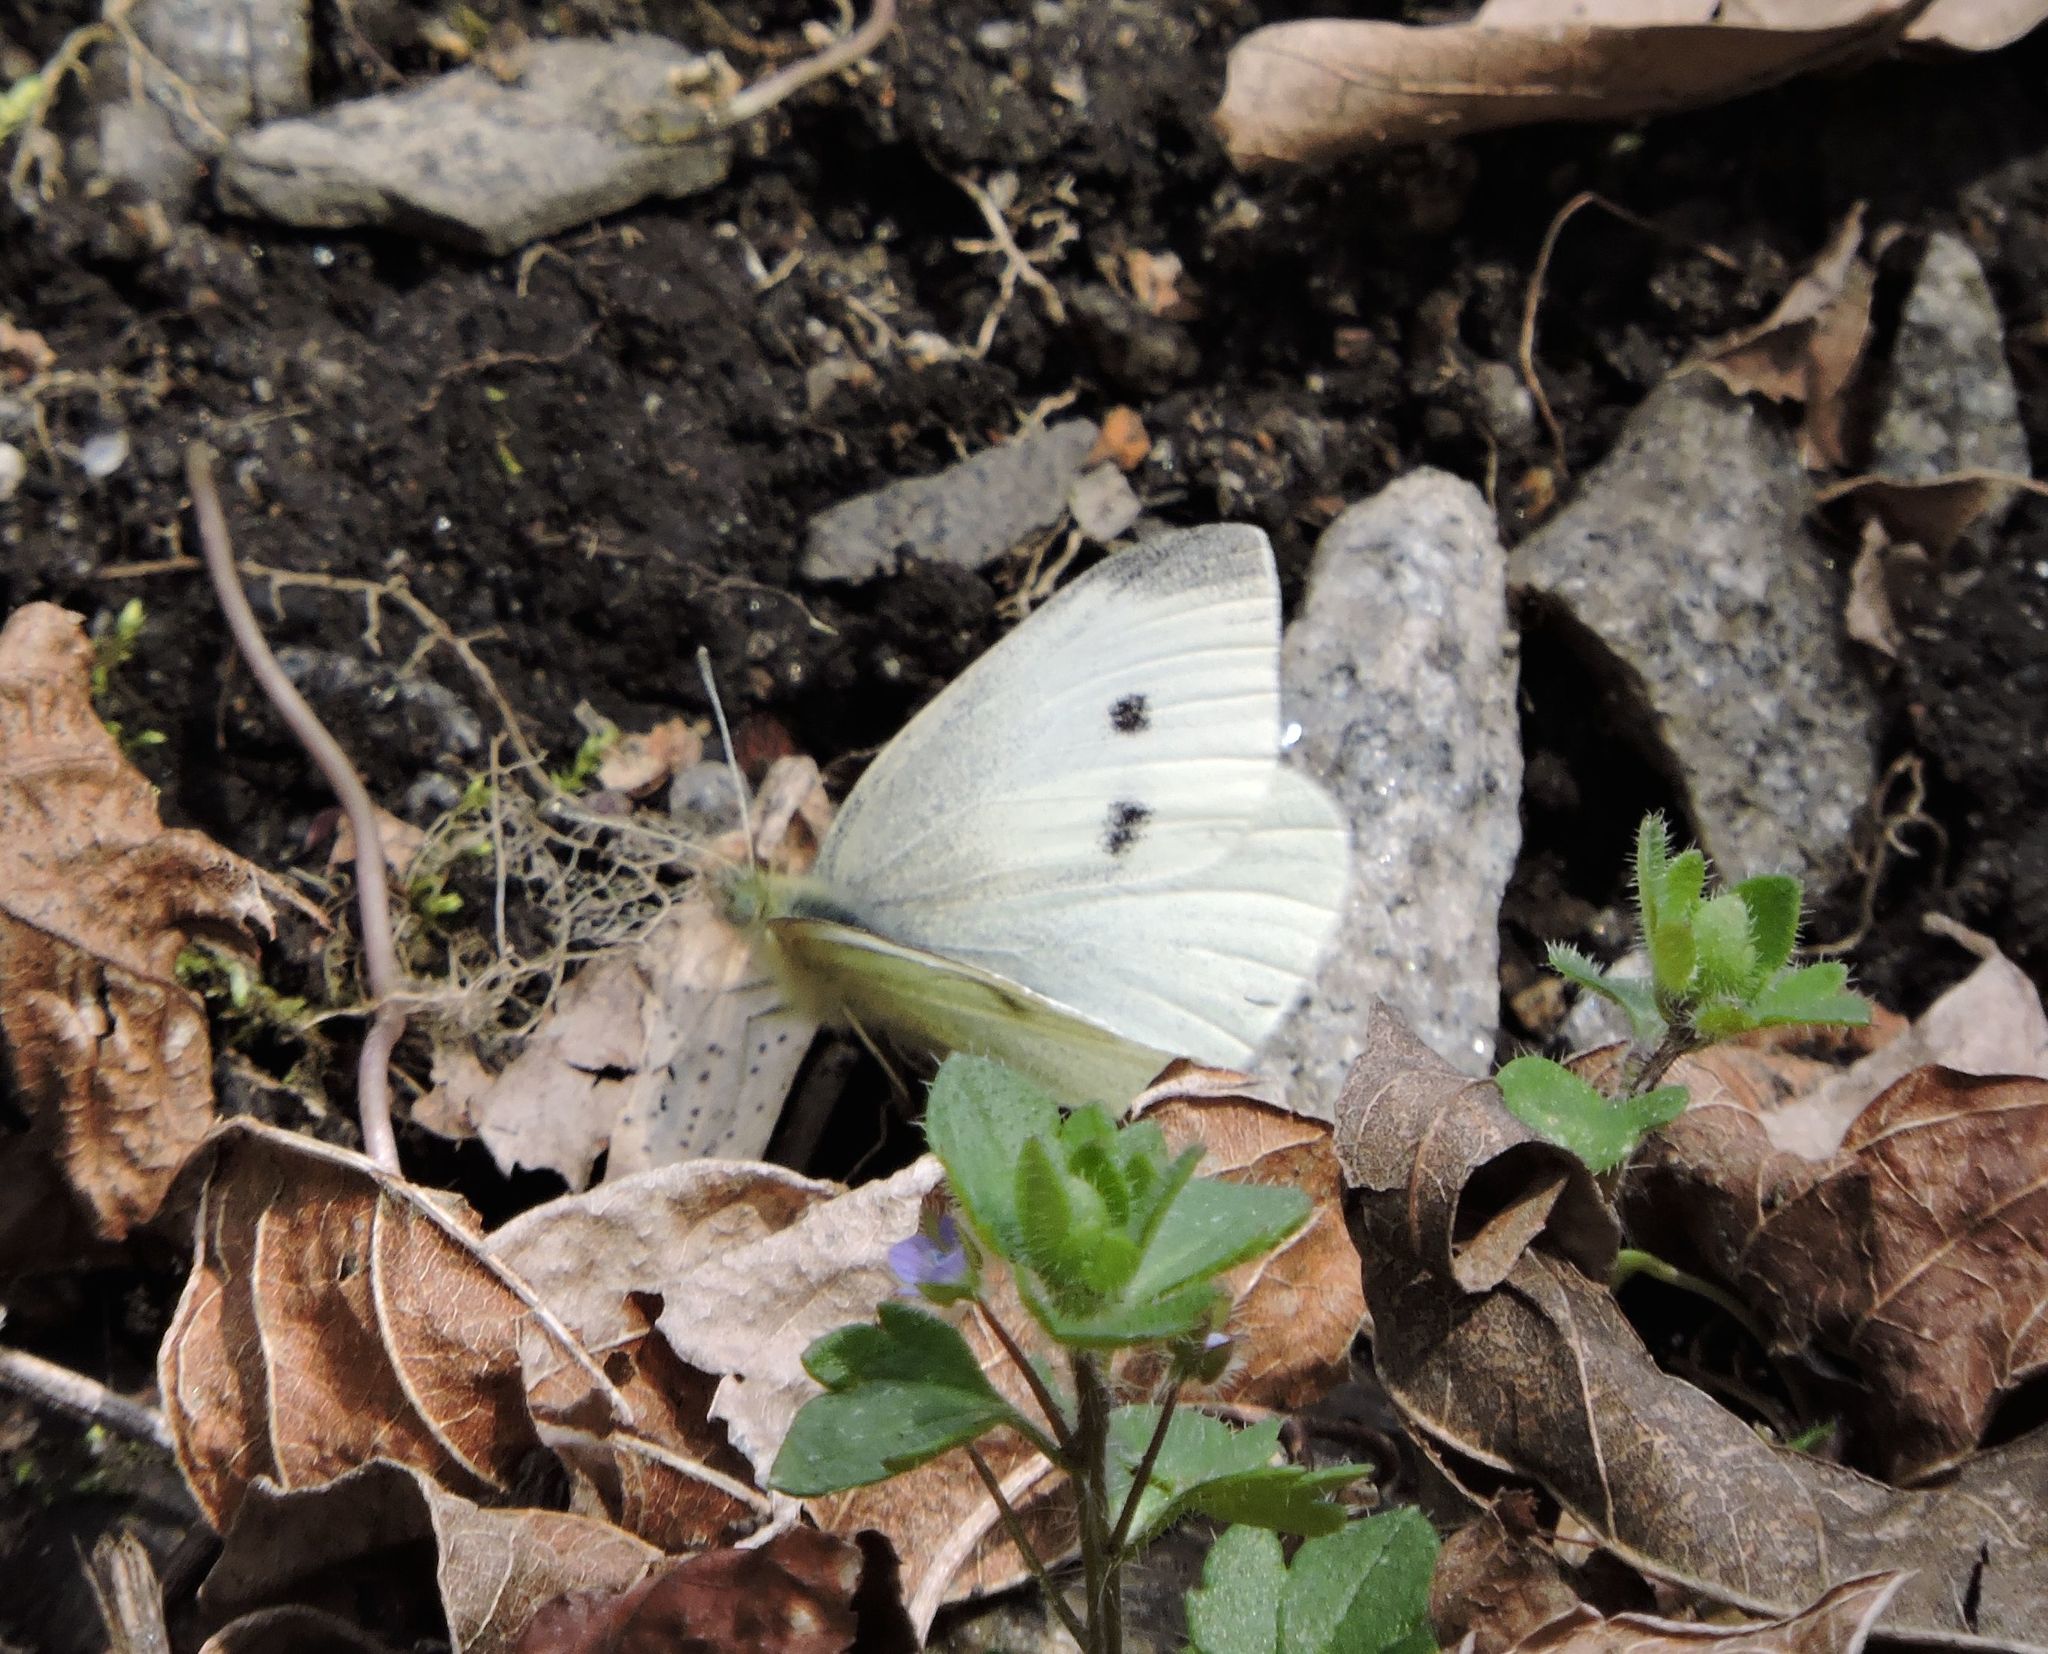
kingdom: Animalia
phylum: Arthropoda
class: Insecta
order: Lepidoptera
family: Pieridae
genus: Pieris
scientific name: Pieris rapae
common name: Small white
